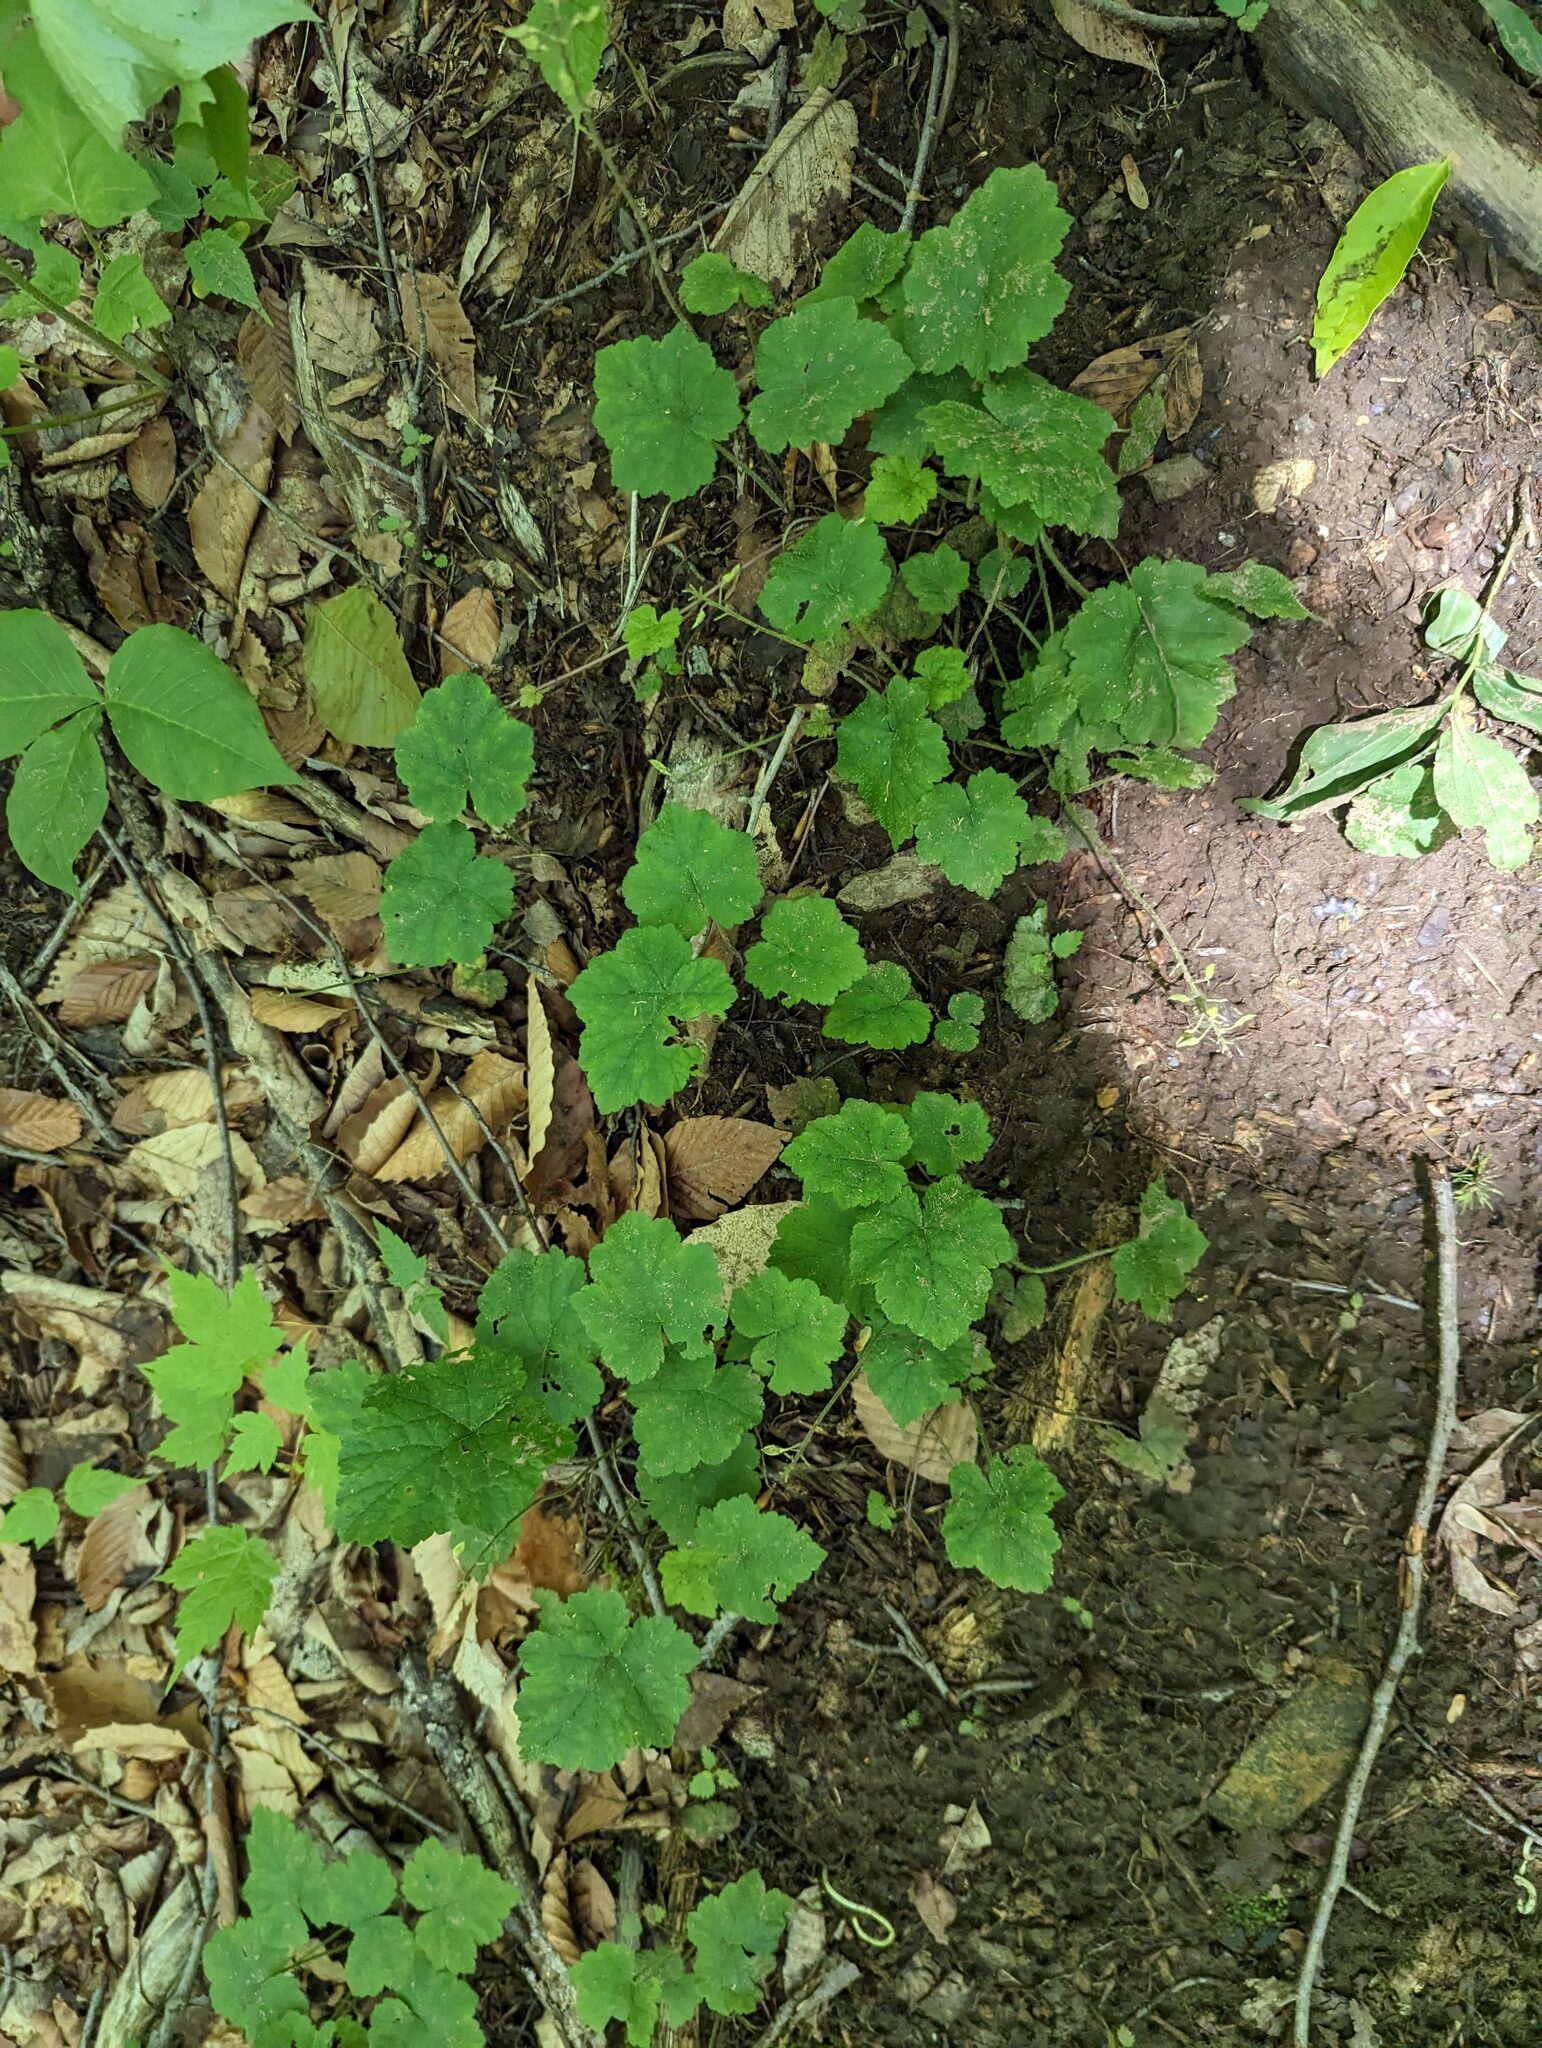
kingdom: Plantae
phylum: Tracheophyta
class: Magnoliopsida
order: Saxifragales
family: Saxifragaceae
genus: Tiarella
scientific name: Tiarella stolonifera
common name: Stoloniferous foamflower
